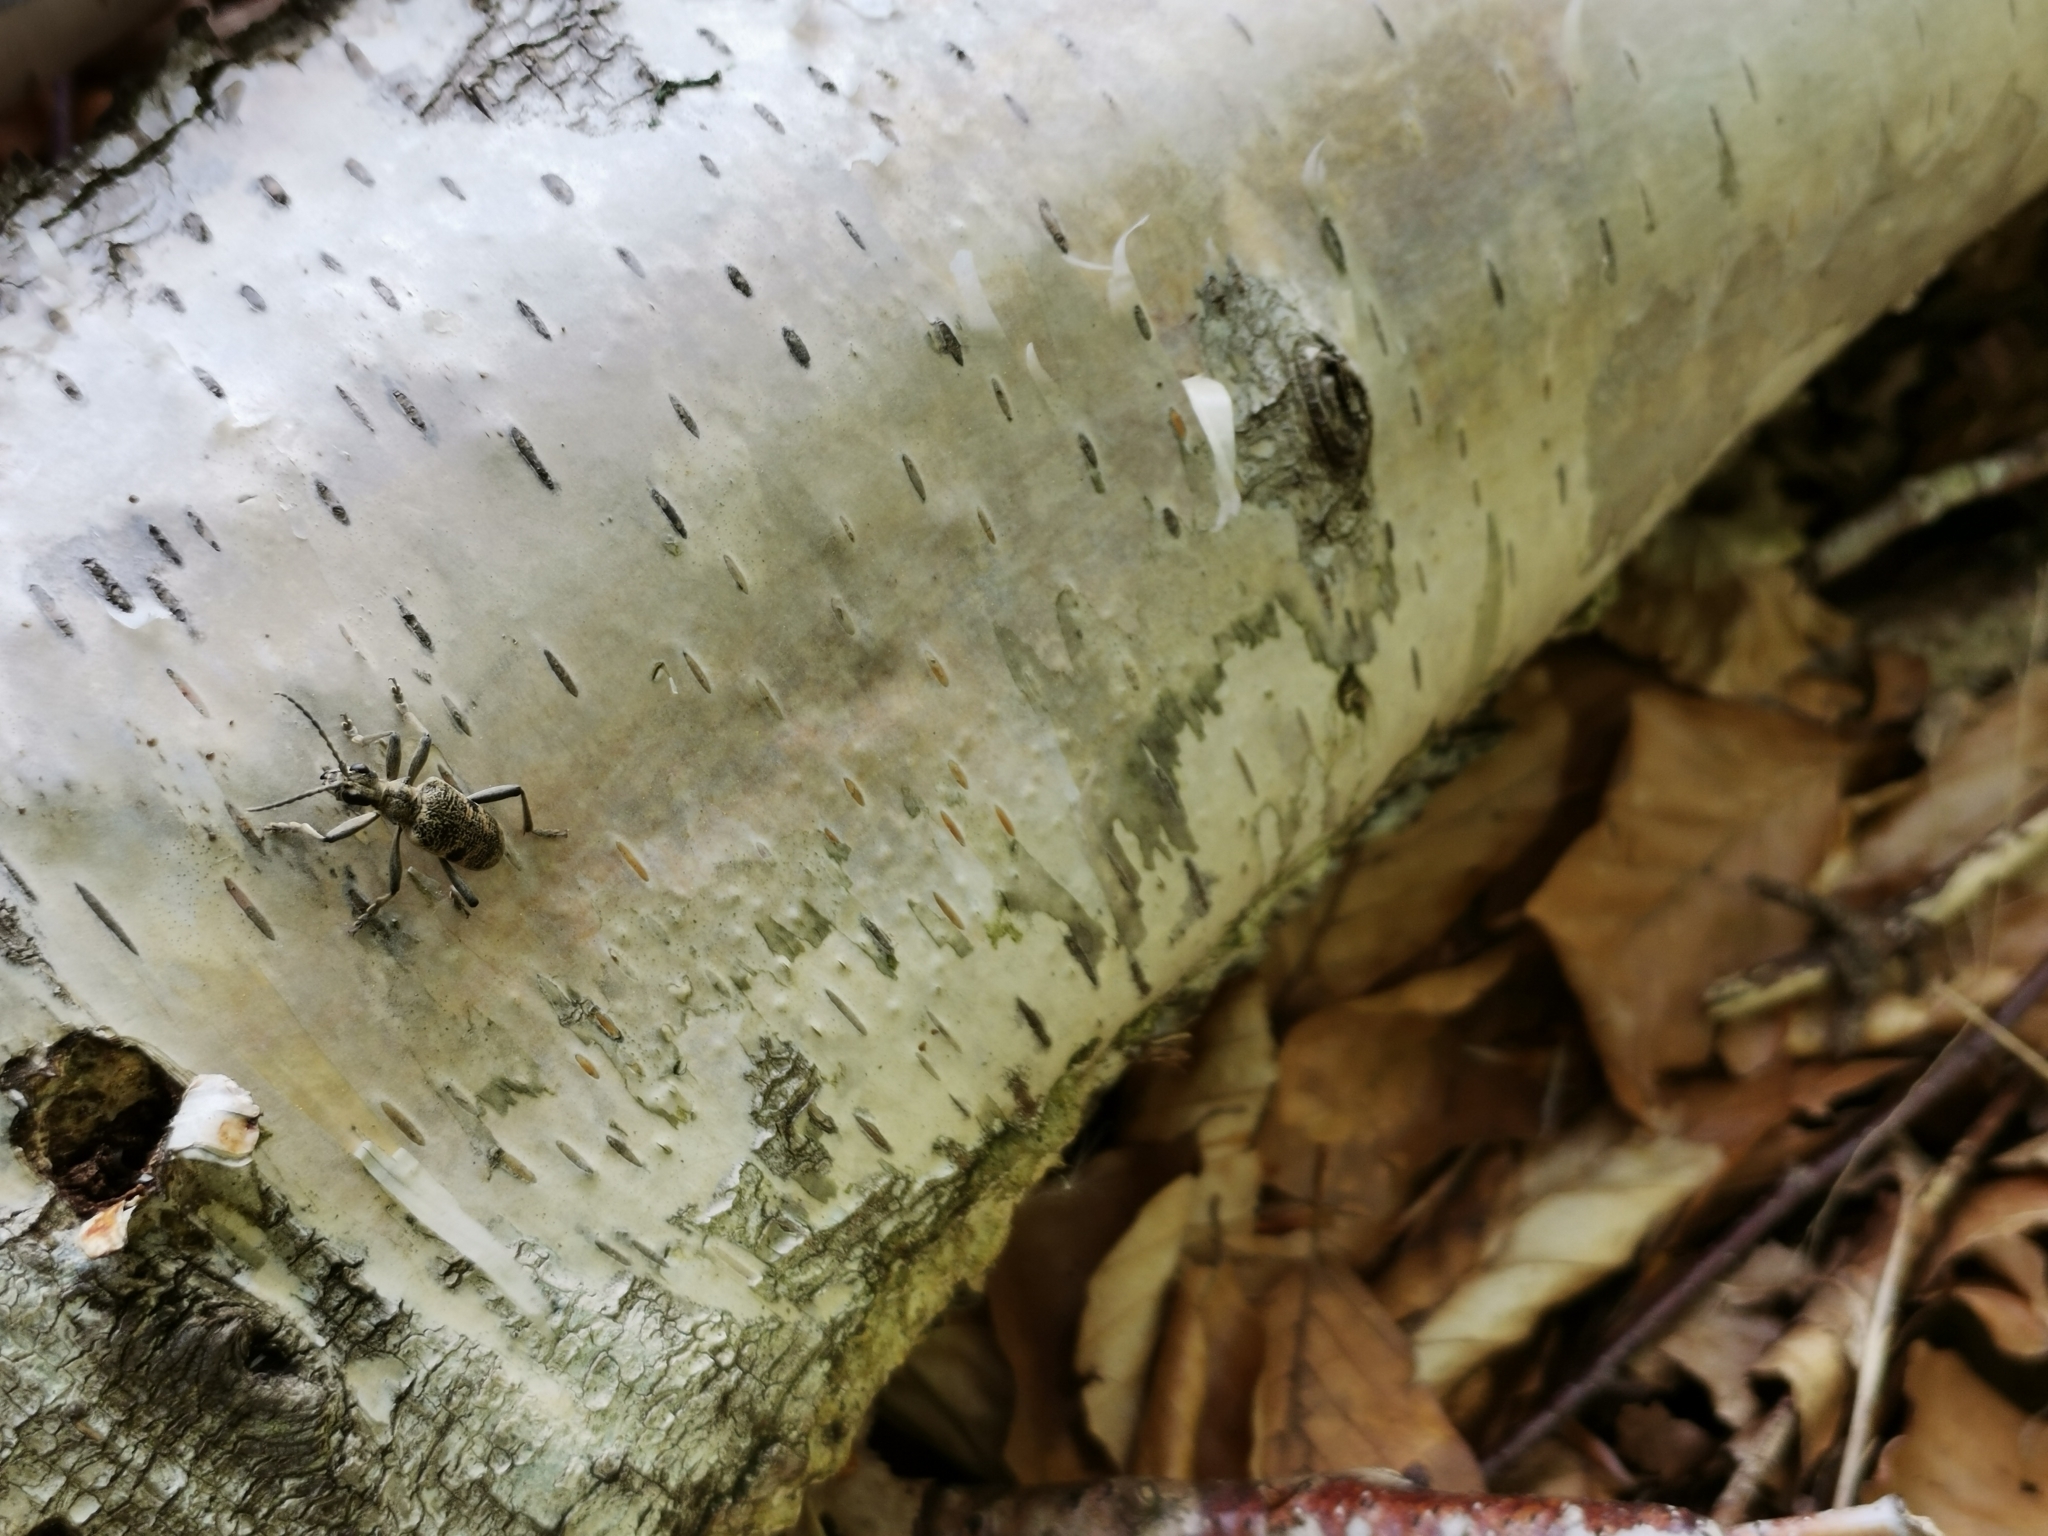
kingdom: Animalia
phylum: Arthropoda
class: Insecta
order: Coleoptera
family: Cerambycidae
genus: Rhagium
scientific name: Rhagium mordax
